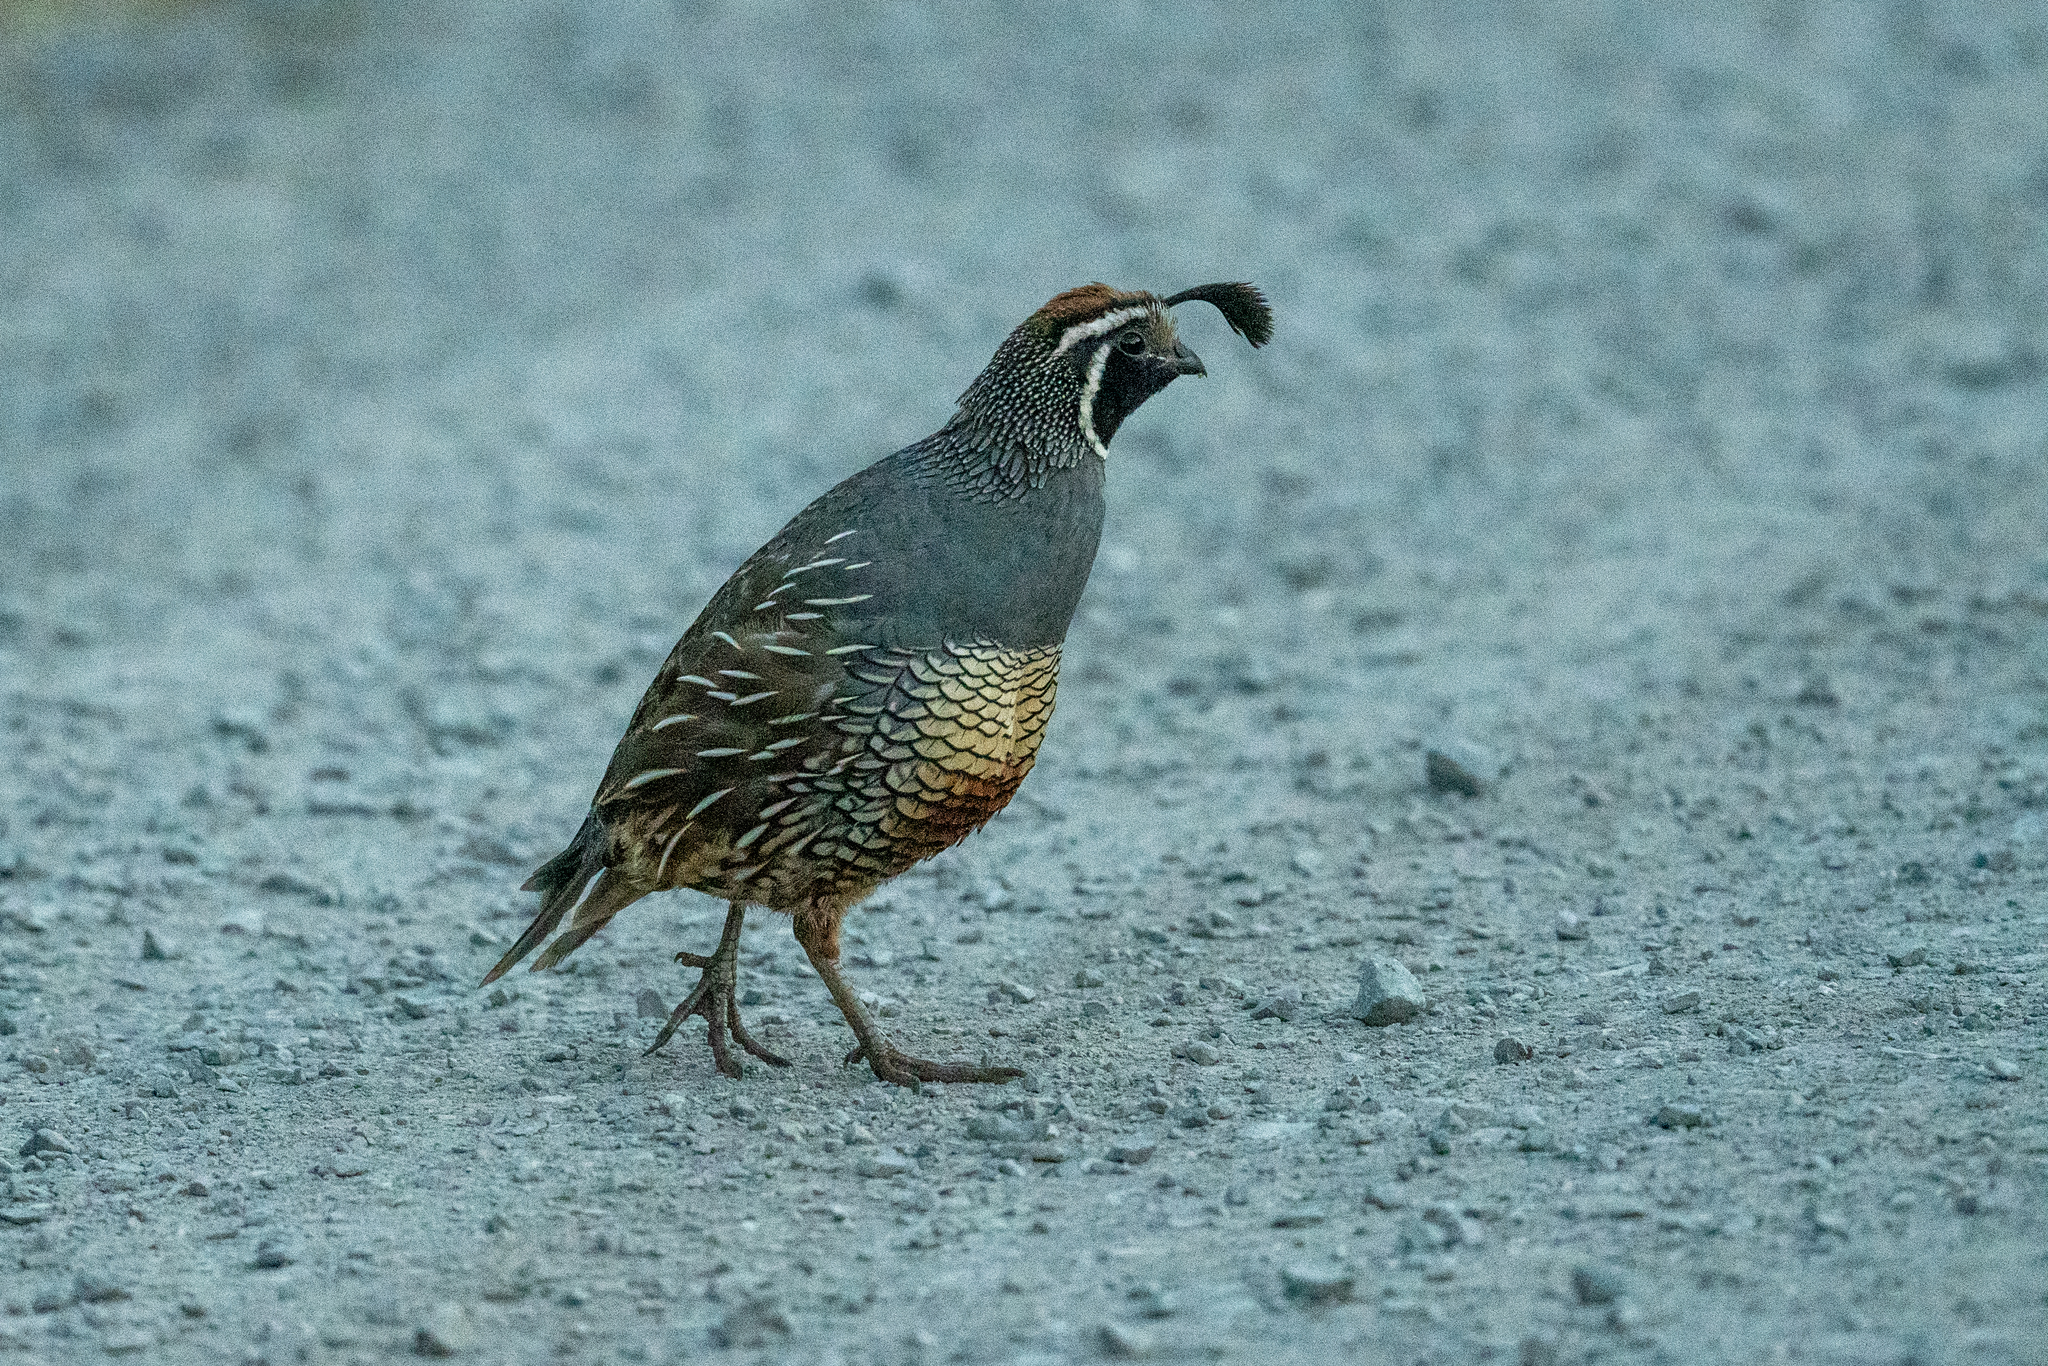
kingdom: Animalia
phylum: Chordata
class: Aves
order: Galliformes
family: Odontophoridae
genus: Callipepla
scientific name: Callipepla californica
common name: California quail
